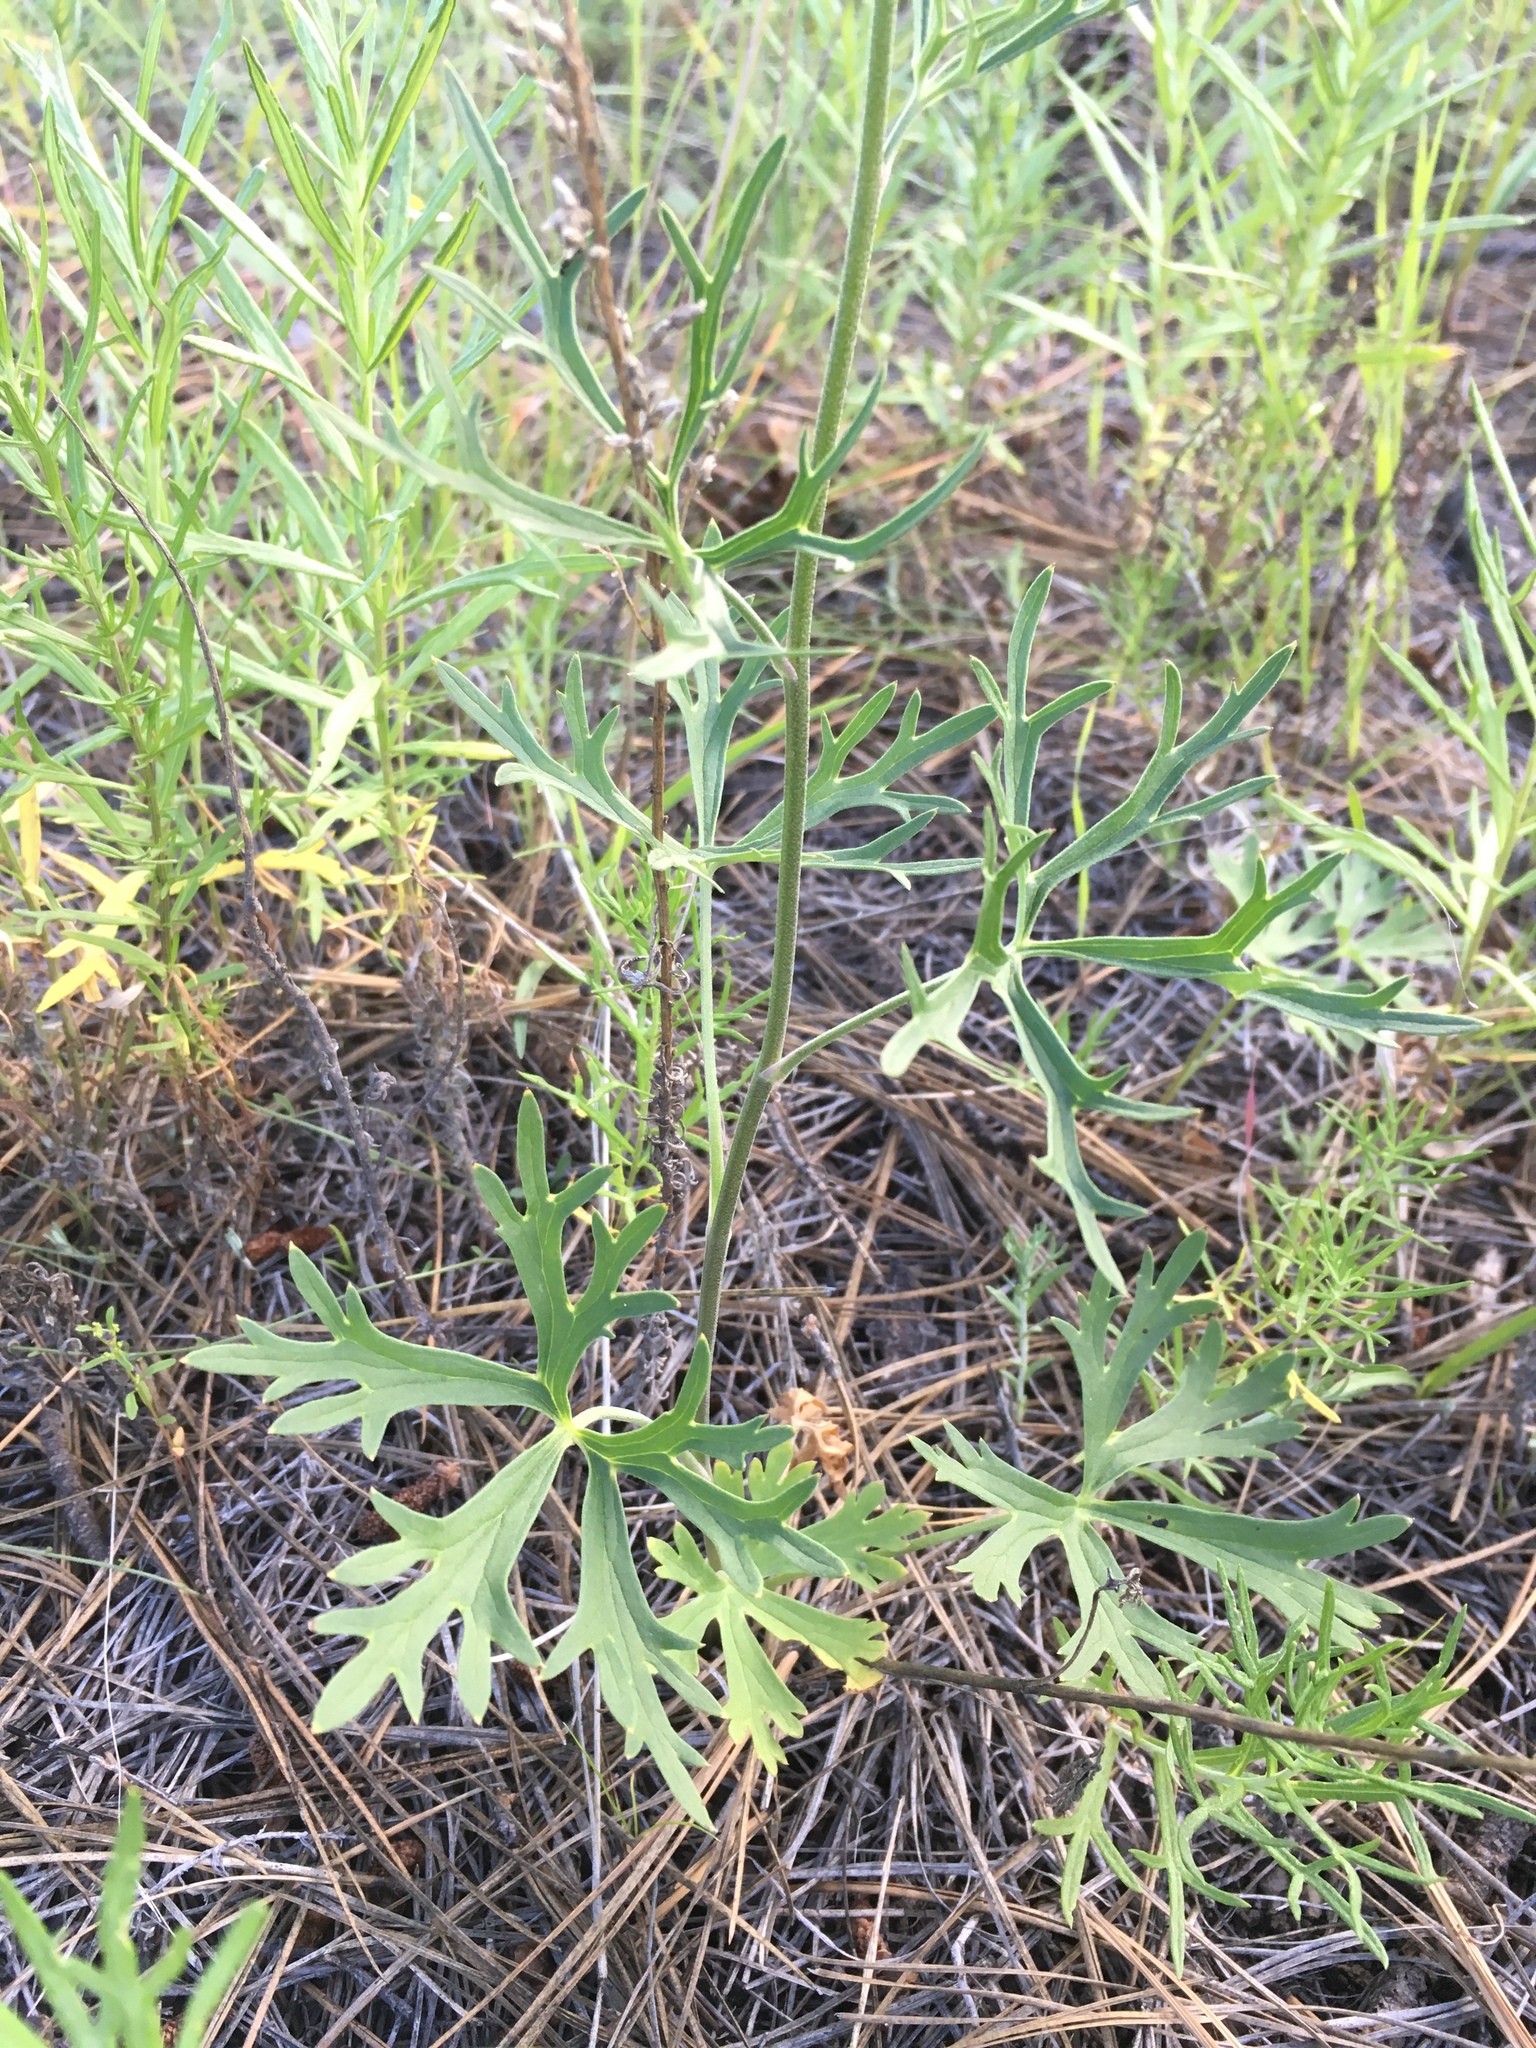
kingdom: Plantae
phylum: Tracheophyta
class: Magnoliopsida
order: Ranunculales
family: Ranunculaceae
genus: Delphinium
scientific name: Delphinium scopulorum
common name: Rocky mountain larkspur
